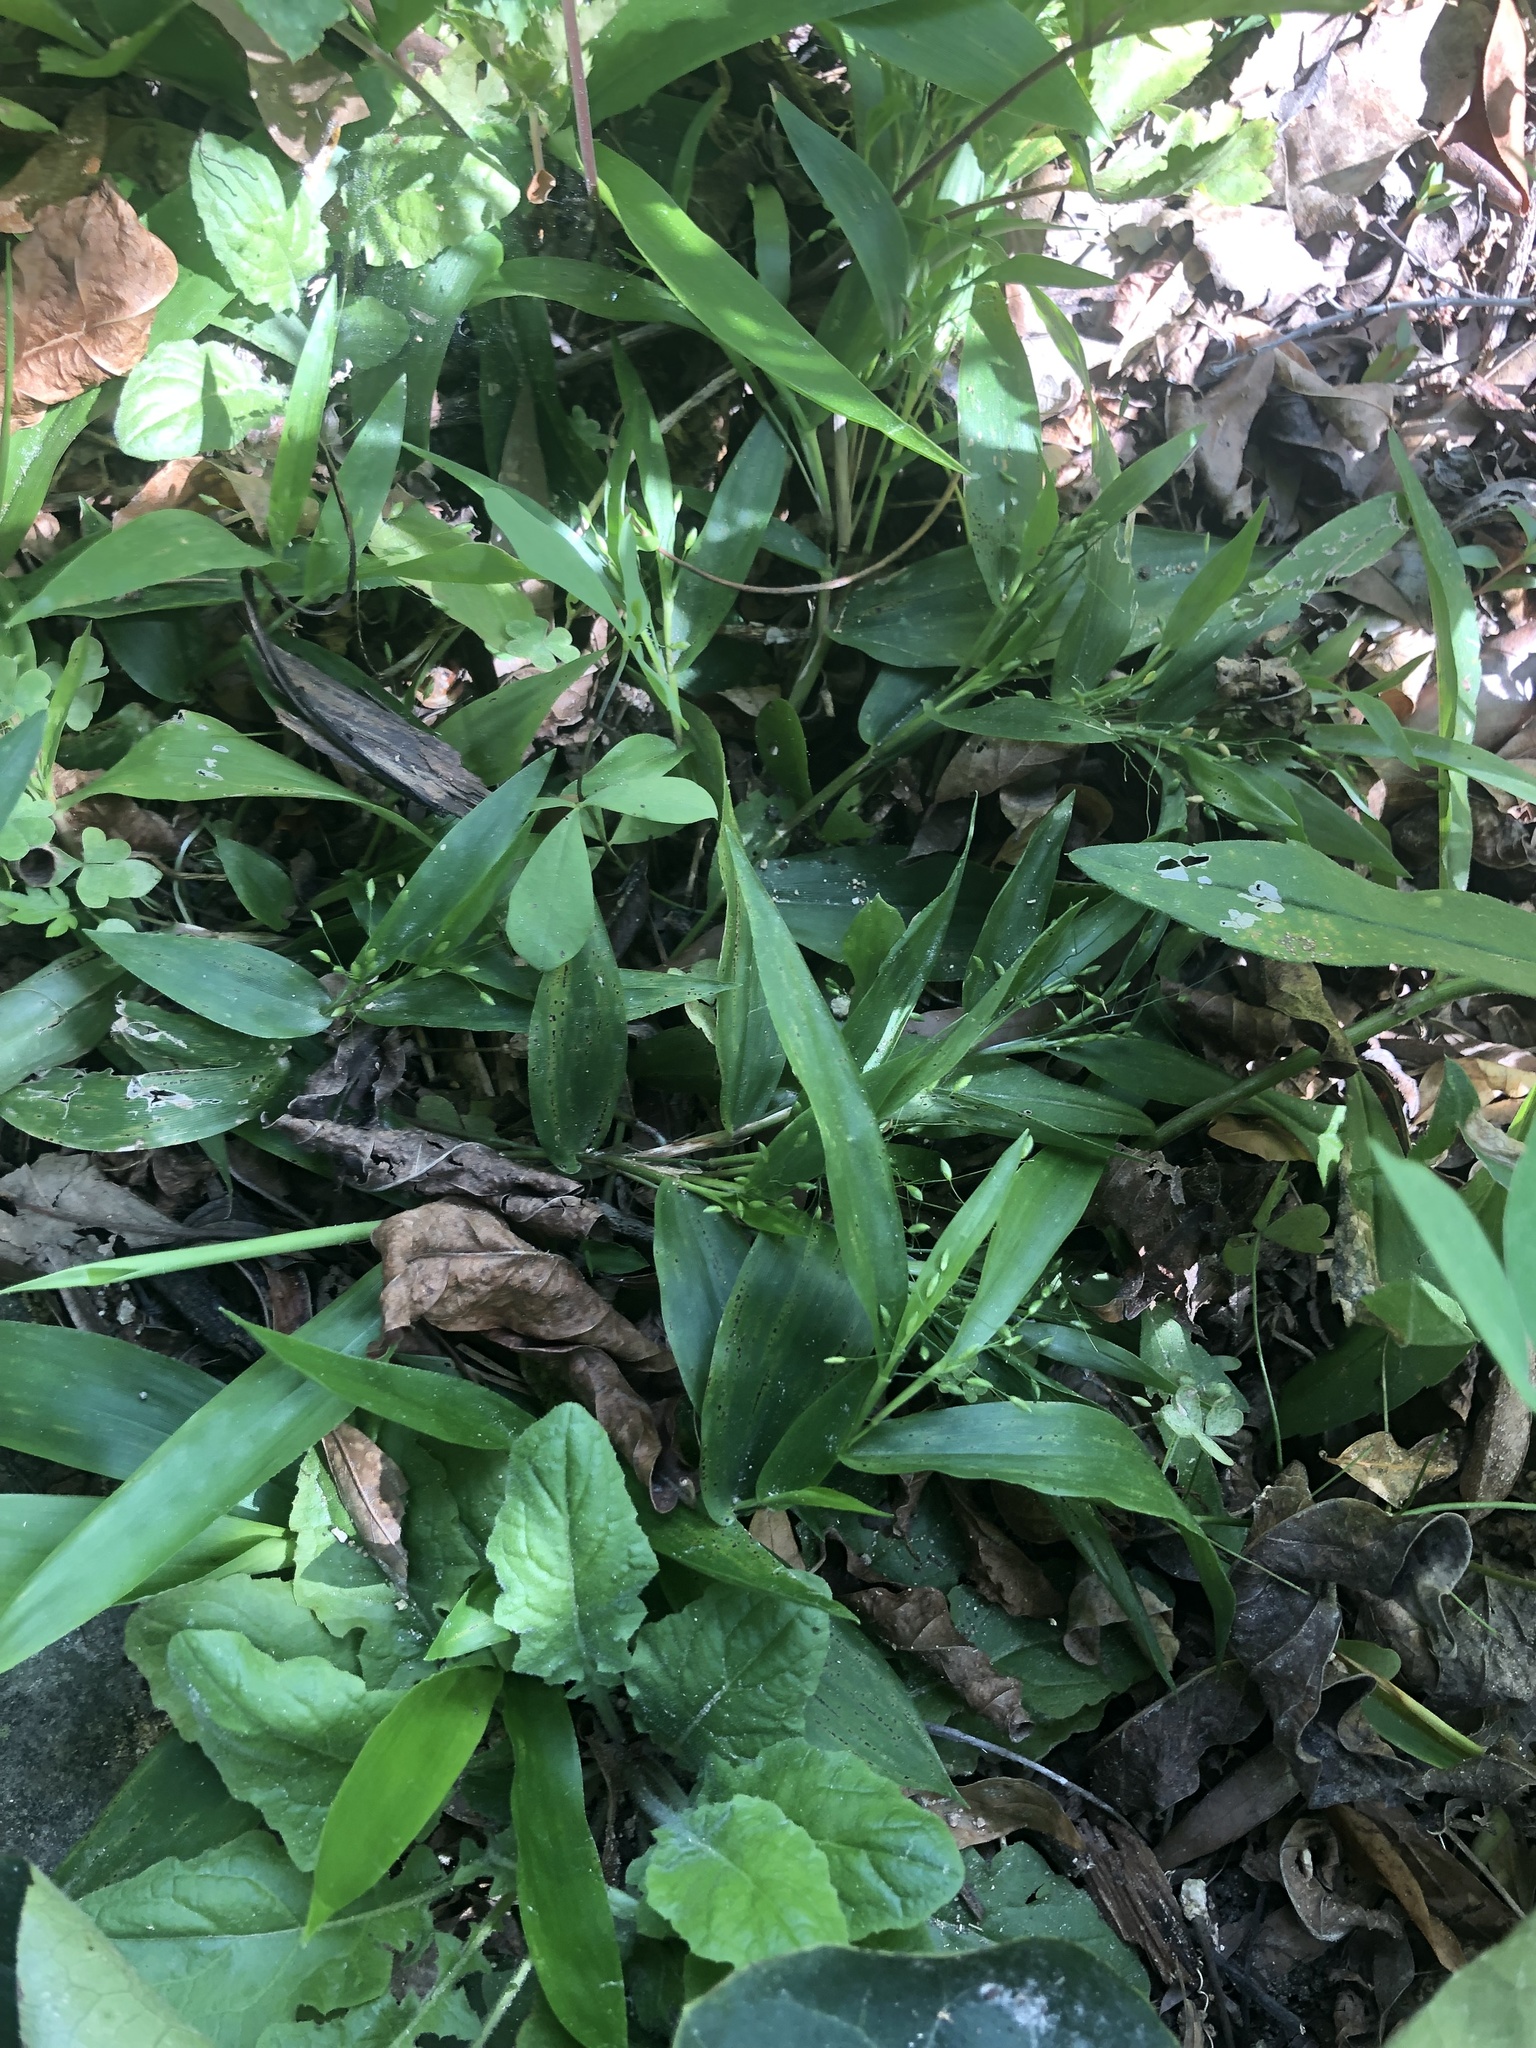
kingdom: Plantae
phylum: Tracheophyta
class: Liliopsida
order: Poales
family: Poaceae
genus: Dichanthelium
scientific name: Dichanthelium commutatum
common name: Variable witchgrass
